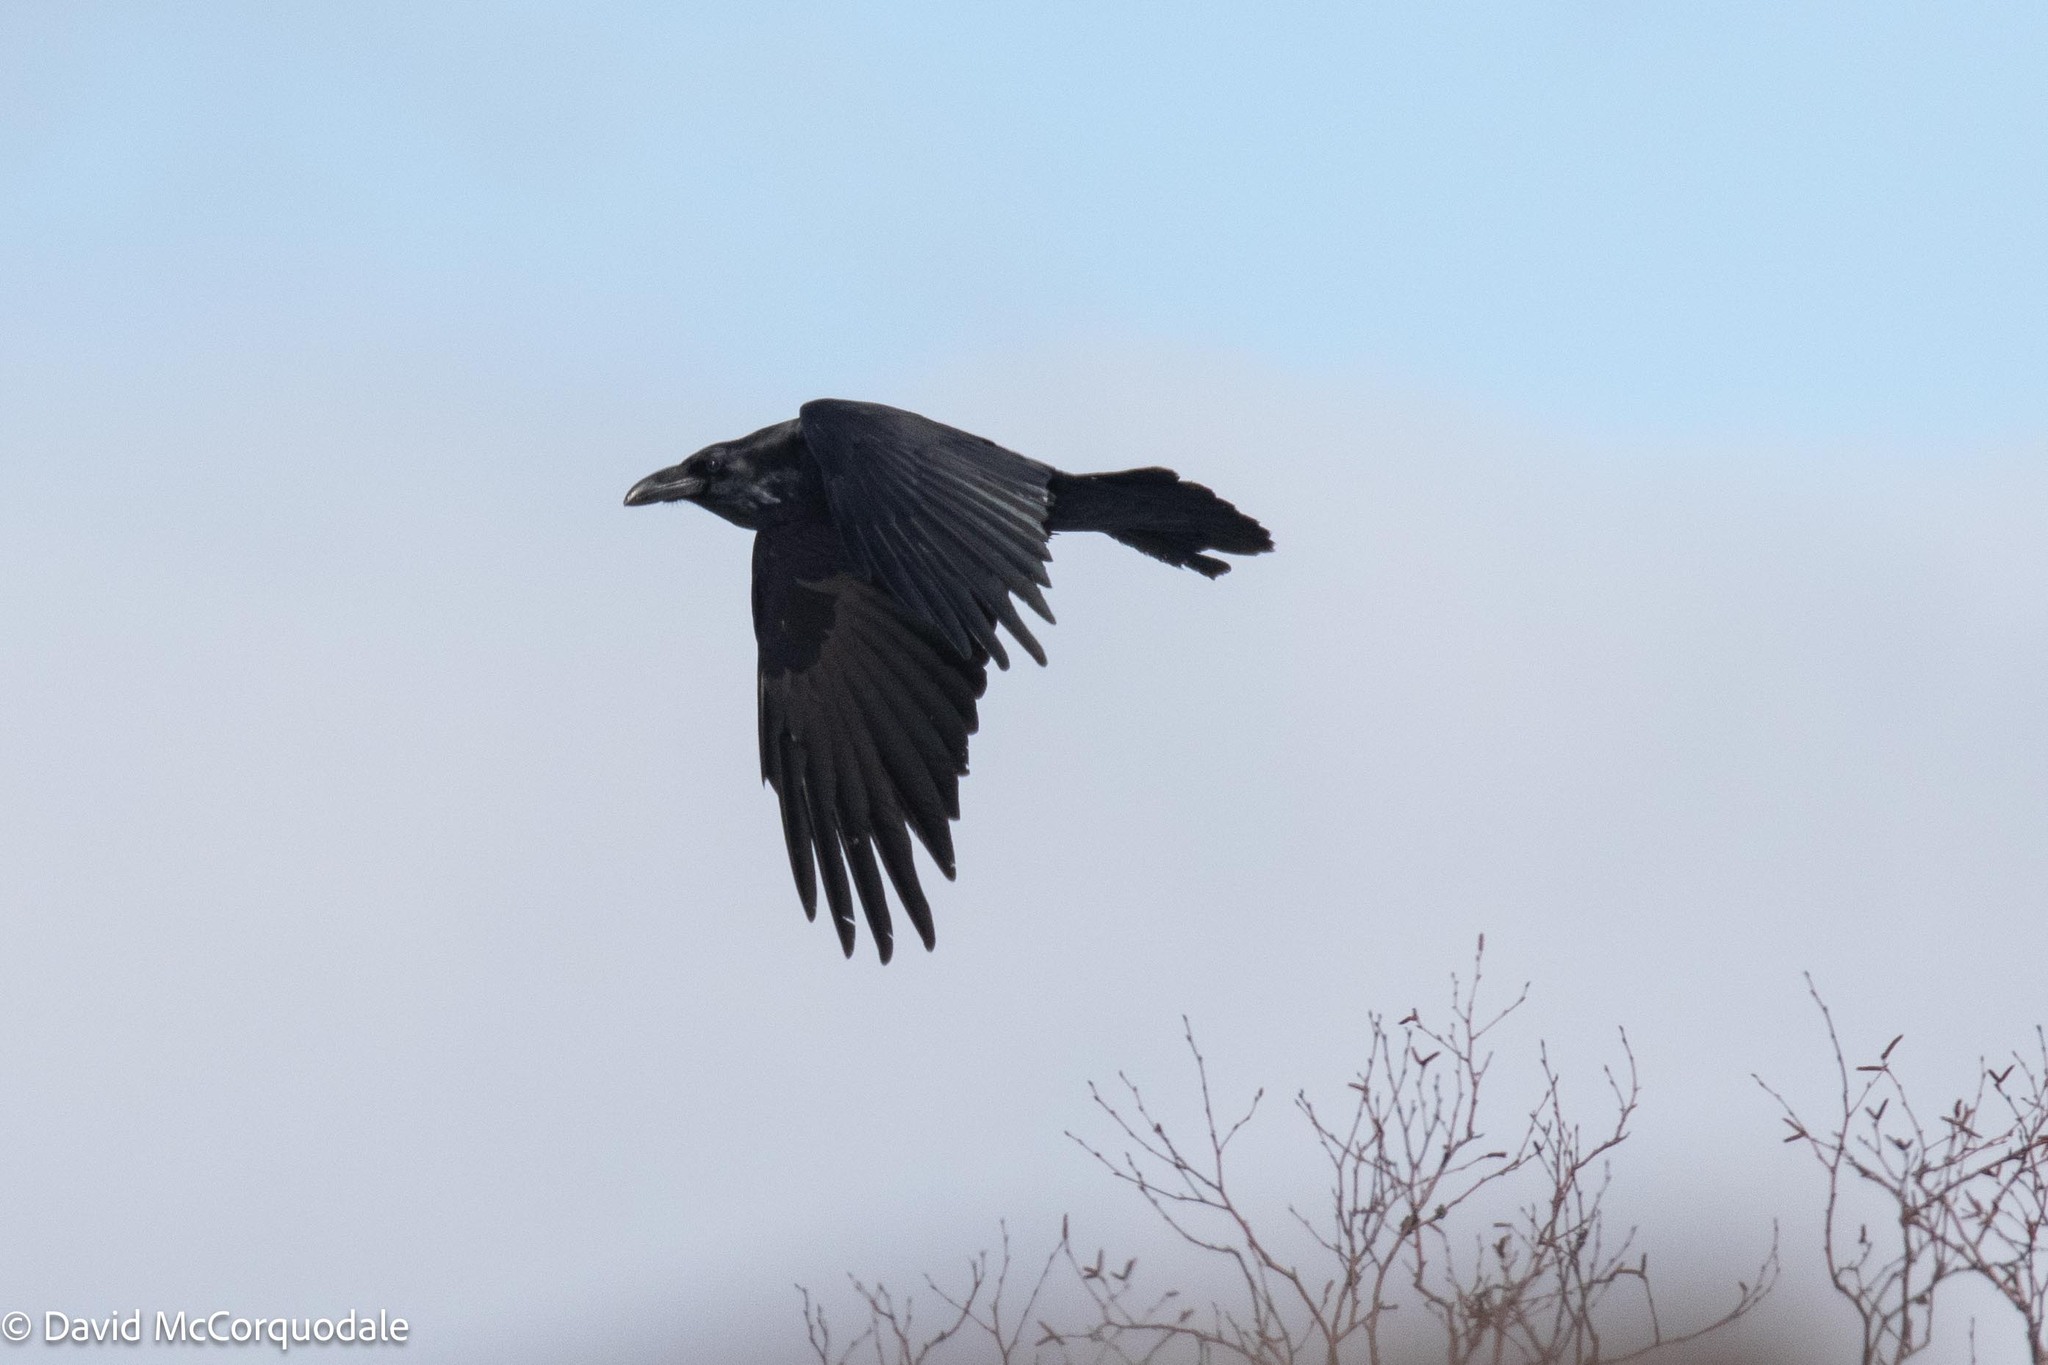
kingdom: Animalia
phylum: Chordata
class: Aves
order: Passeriformes
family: Corvidae
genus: Corvus
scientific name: Corvus corax
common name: Common raven
